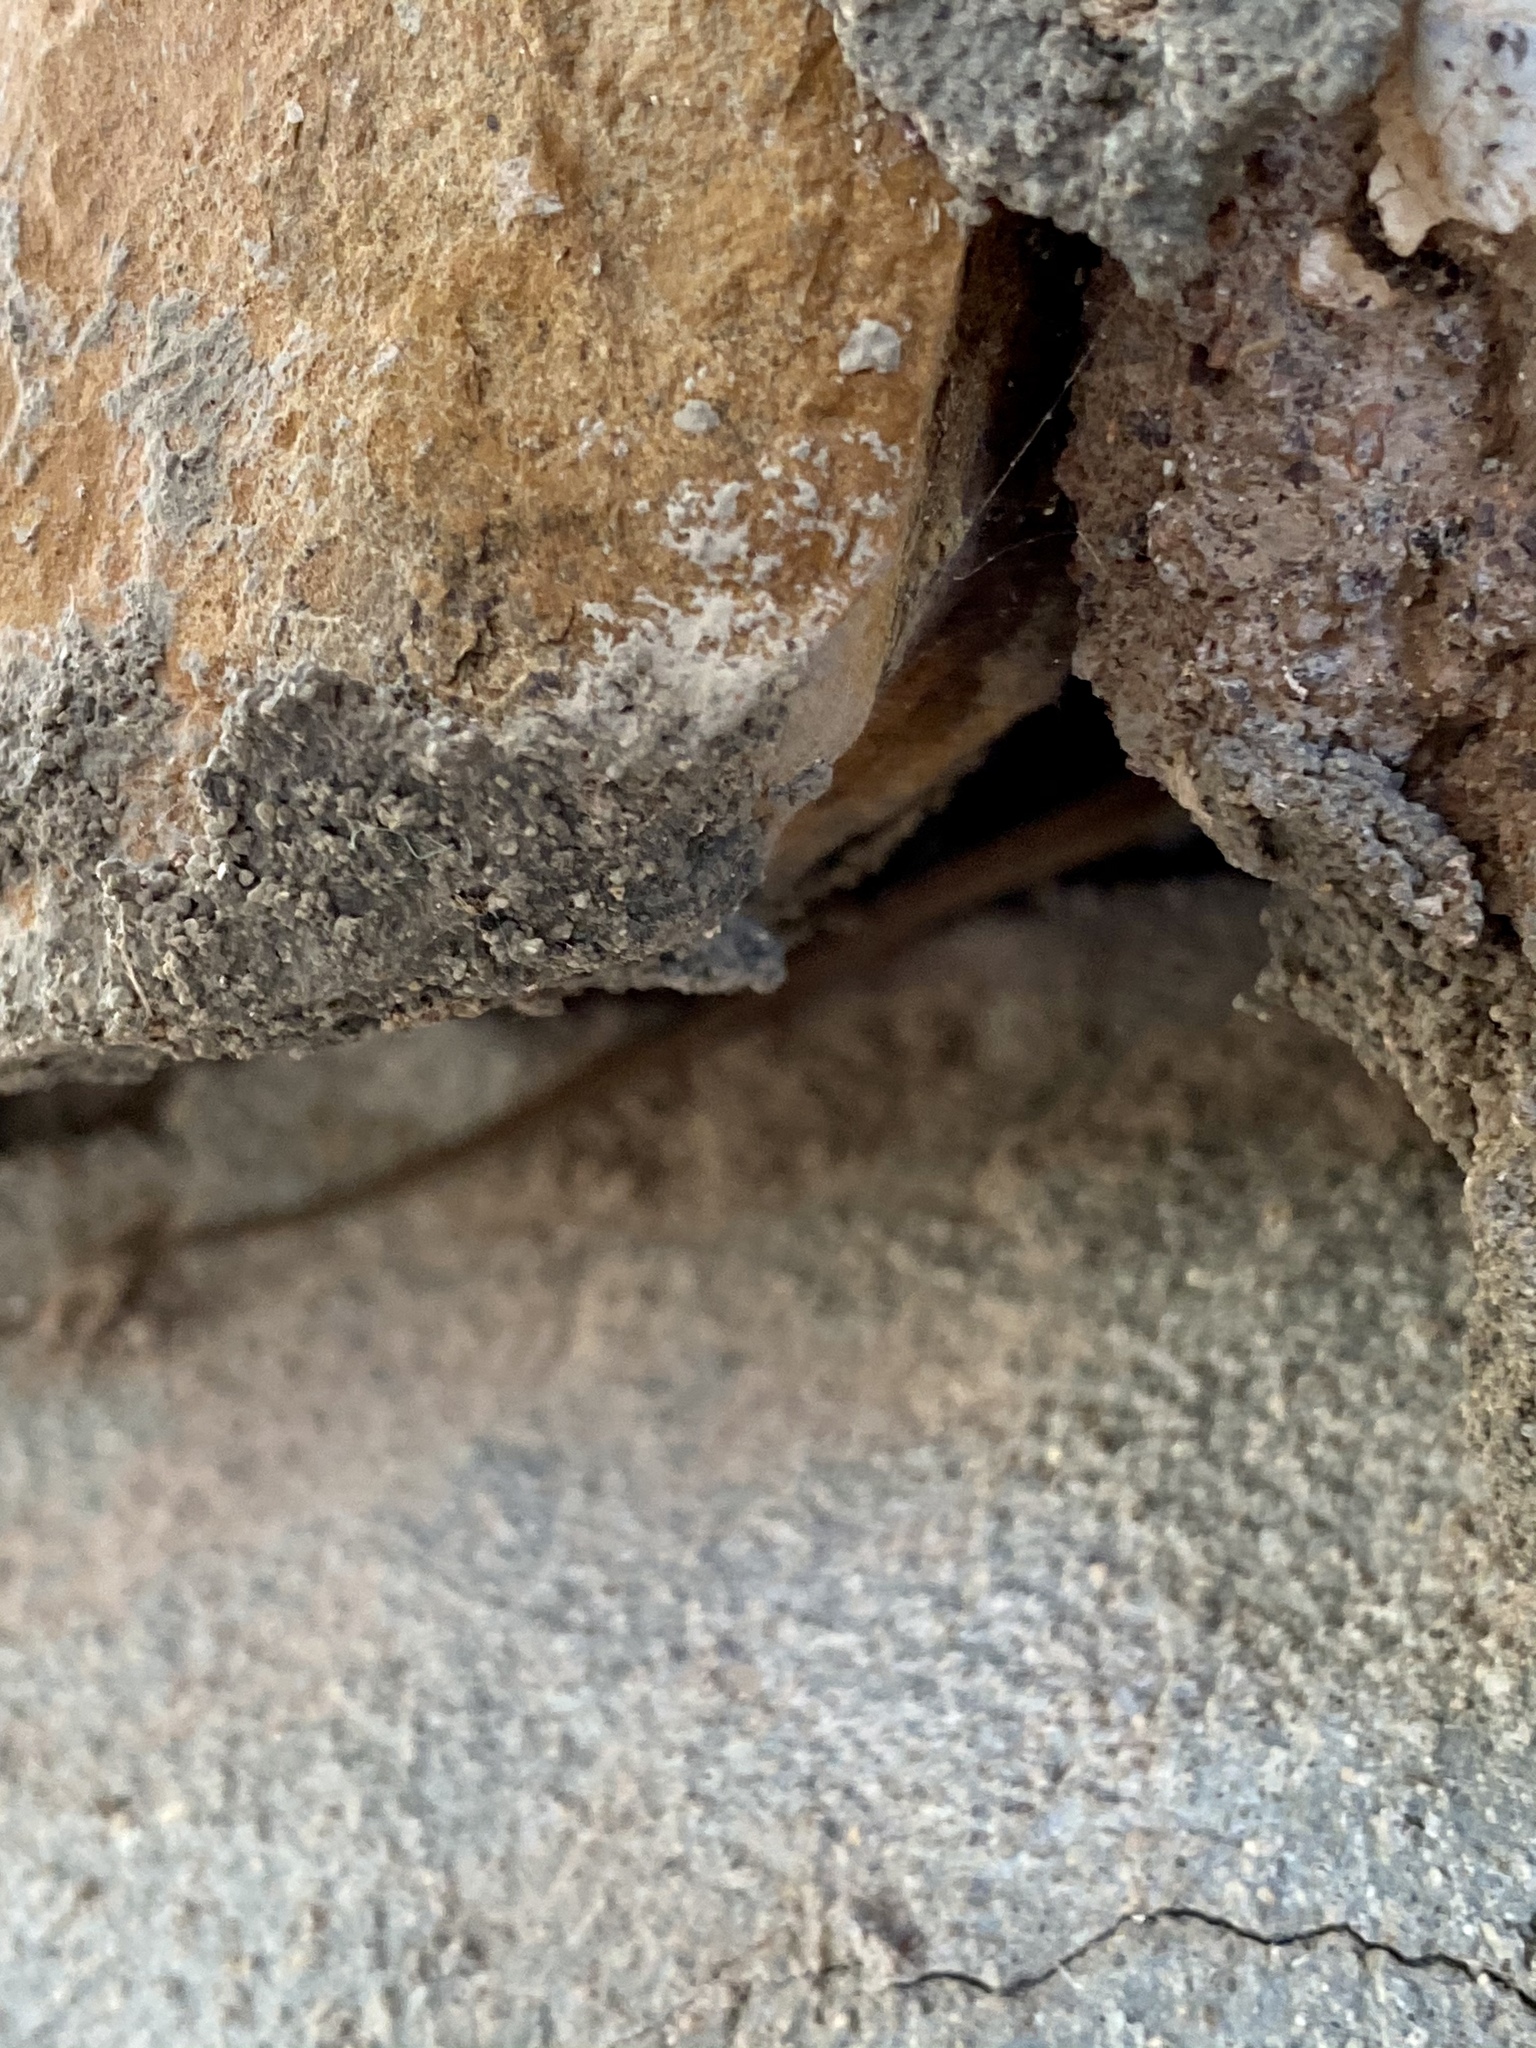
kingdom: Animalia
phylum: Chordata
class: Squamata
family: Phrynosomatidae
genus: Sceloporus
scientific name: Sceloporus cowlesi
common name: White sands prairie lizard
